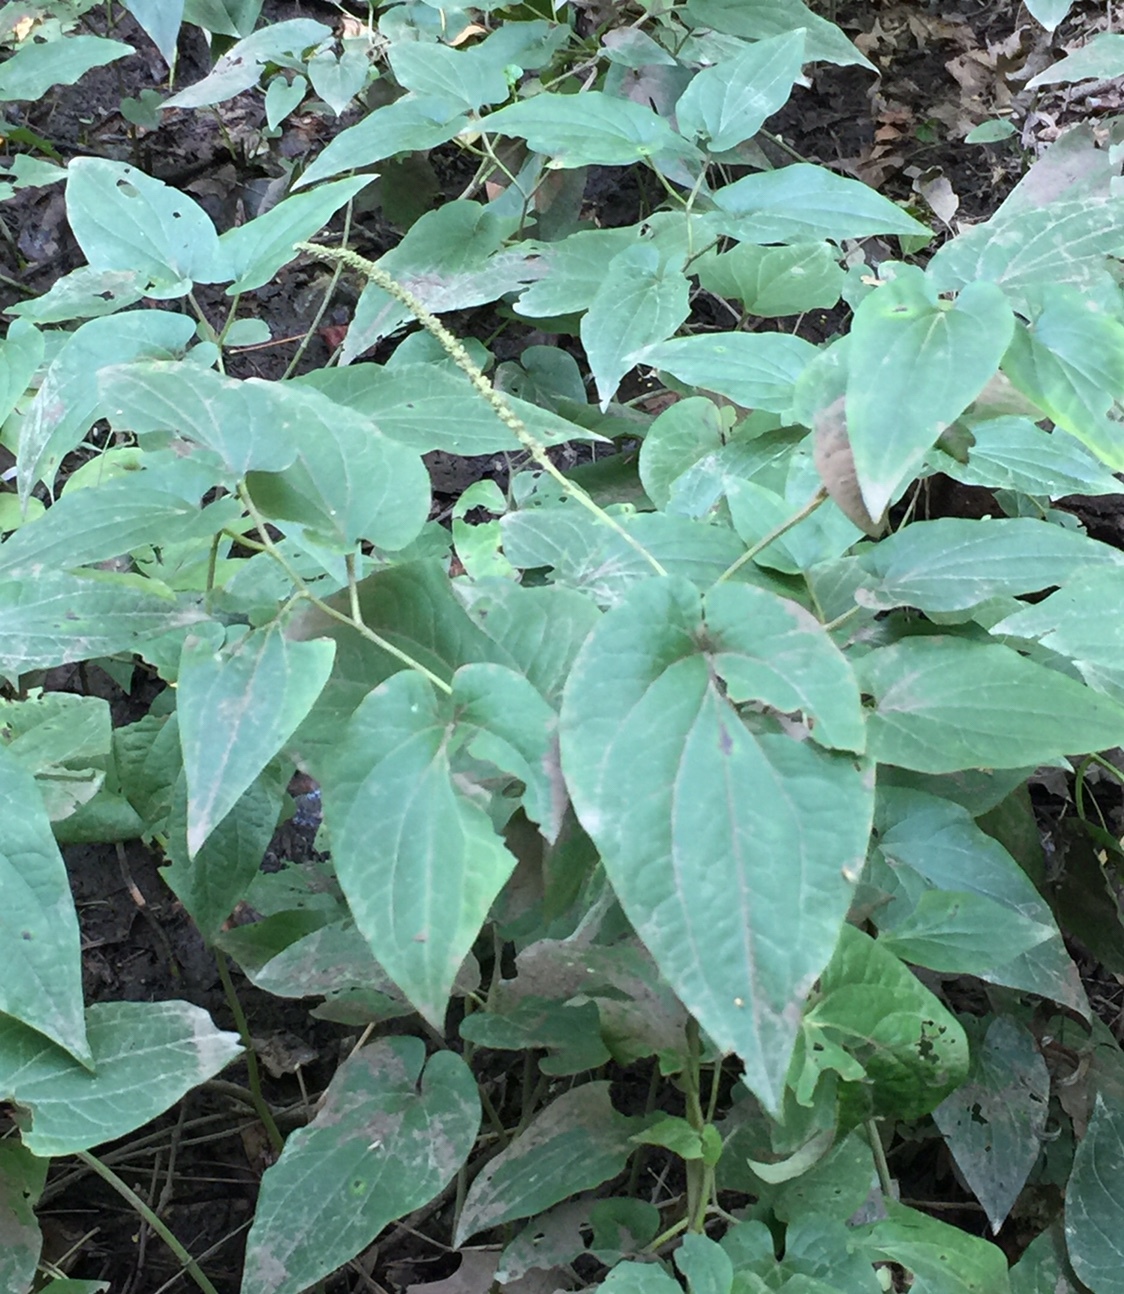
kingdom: Plantae
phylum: Tracheophyta
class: Magnoliopsida
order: Piperales
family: Saururaceae
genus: Saururus
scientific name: Saururus cernuus
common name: Lizard's-tail
